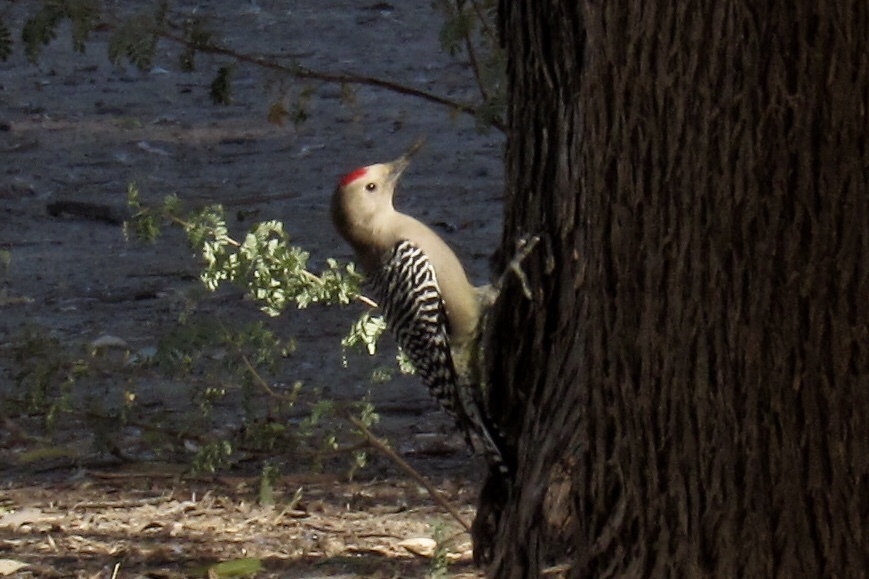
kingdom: Animalia
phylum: Chordata
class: Aves
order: Piciformes
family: Picidae
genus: Melanerpes
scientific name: Melanerpes uropygialis
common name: Gila woodpecker
